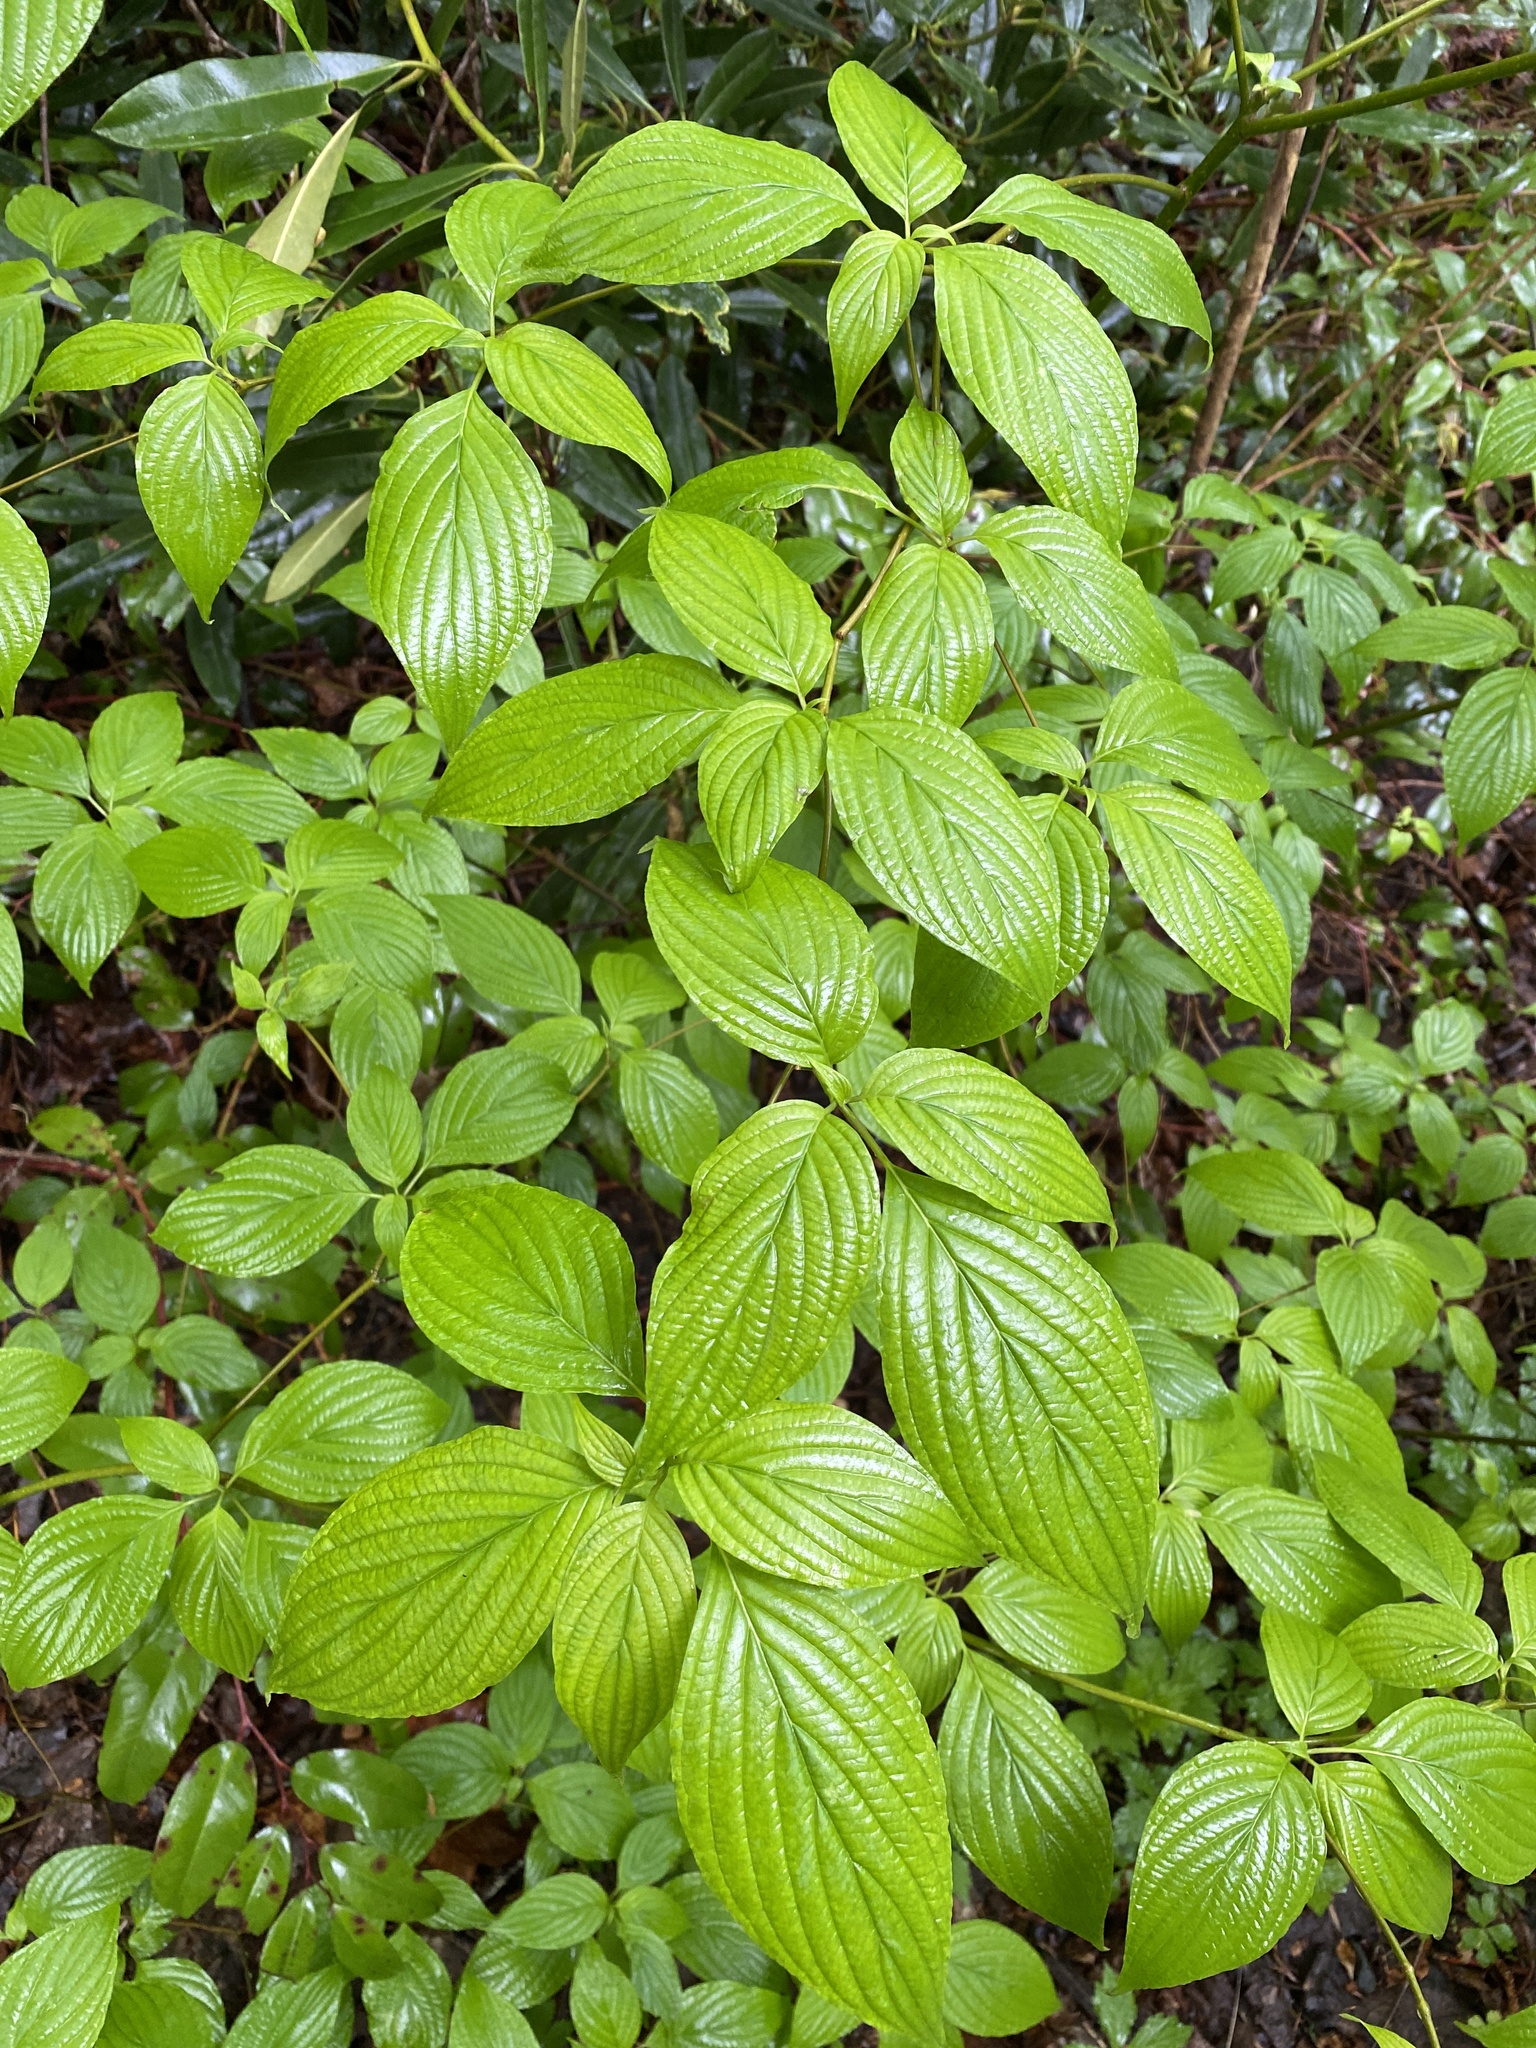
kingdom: Plantae
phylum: Tracheophyta
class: Magnoliopsida
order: Cornales
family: Cornaceae
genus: Cornus
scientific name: Cornus alternifolia
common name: Pagoda dogwood
